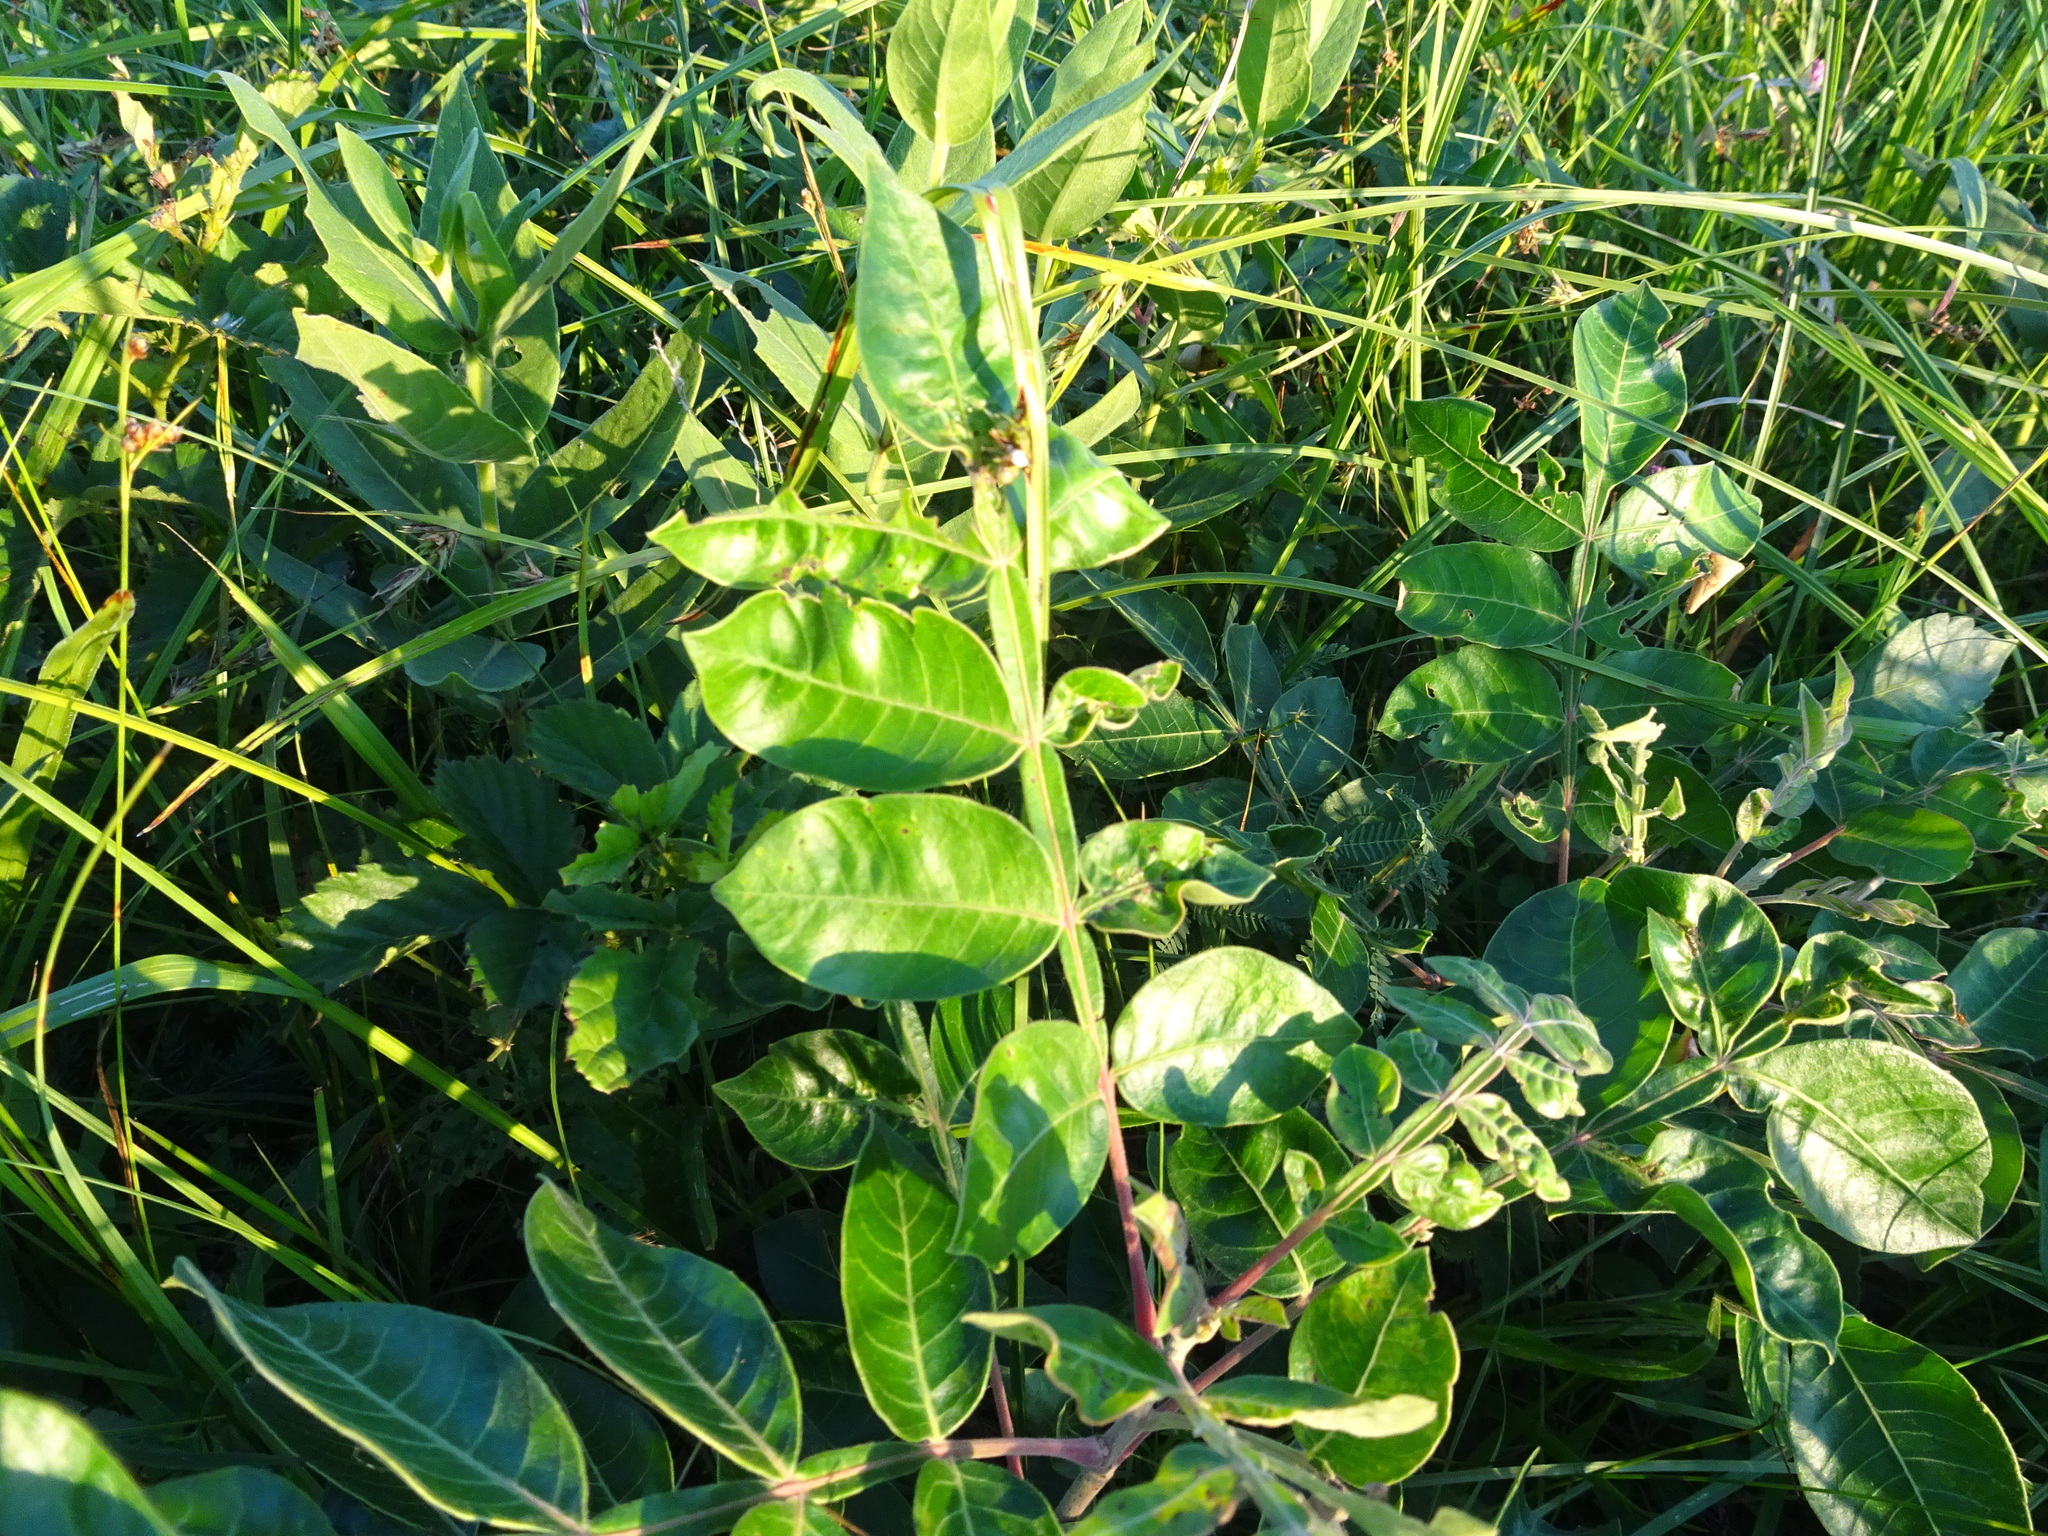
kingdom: Plantae
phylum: Tracheophyta
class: Magnoliopsida
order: Sapindales
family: Anacardiaceae
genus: Rhus
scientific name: Rhus copallina
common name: Shining sumac
